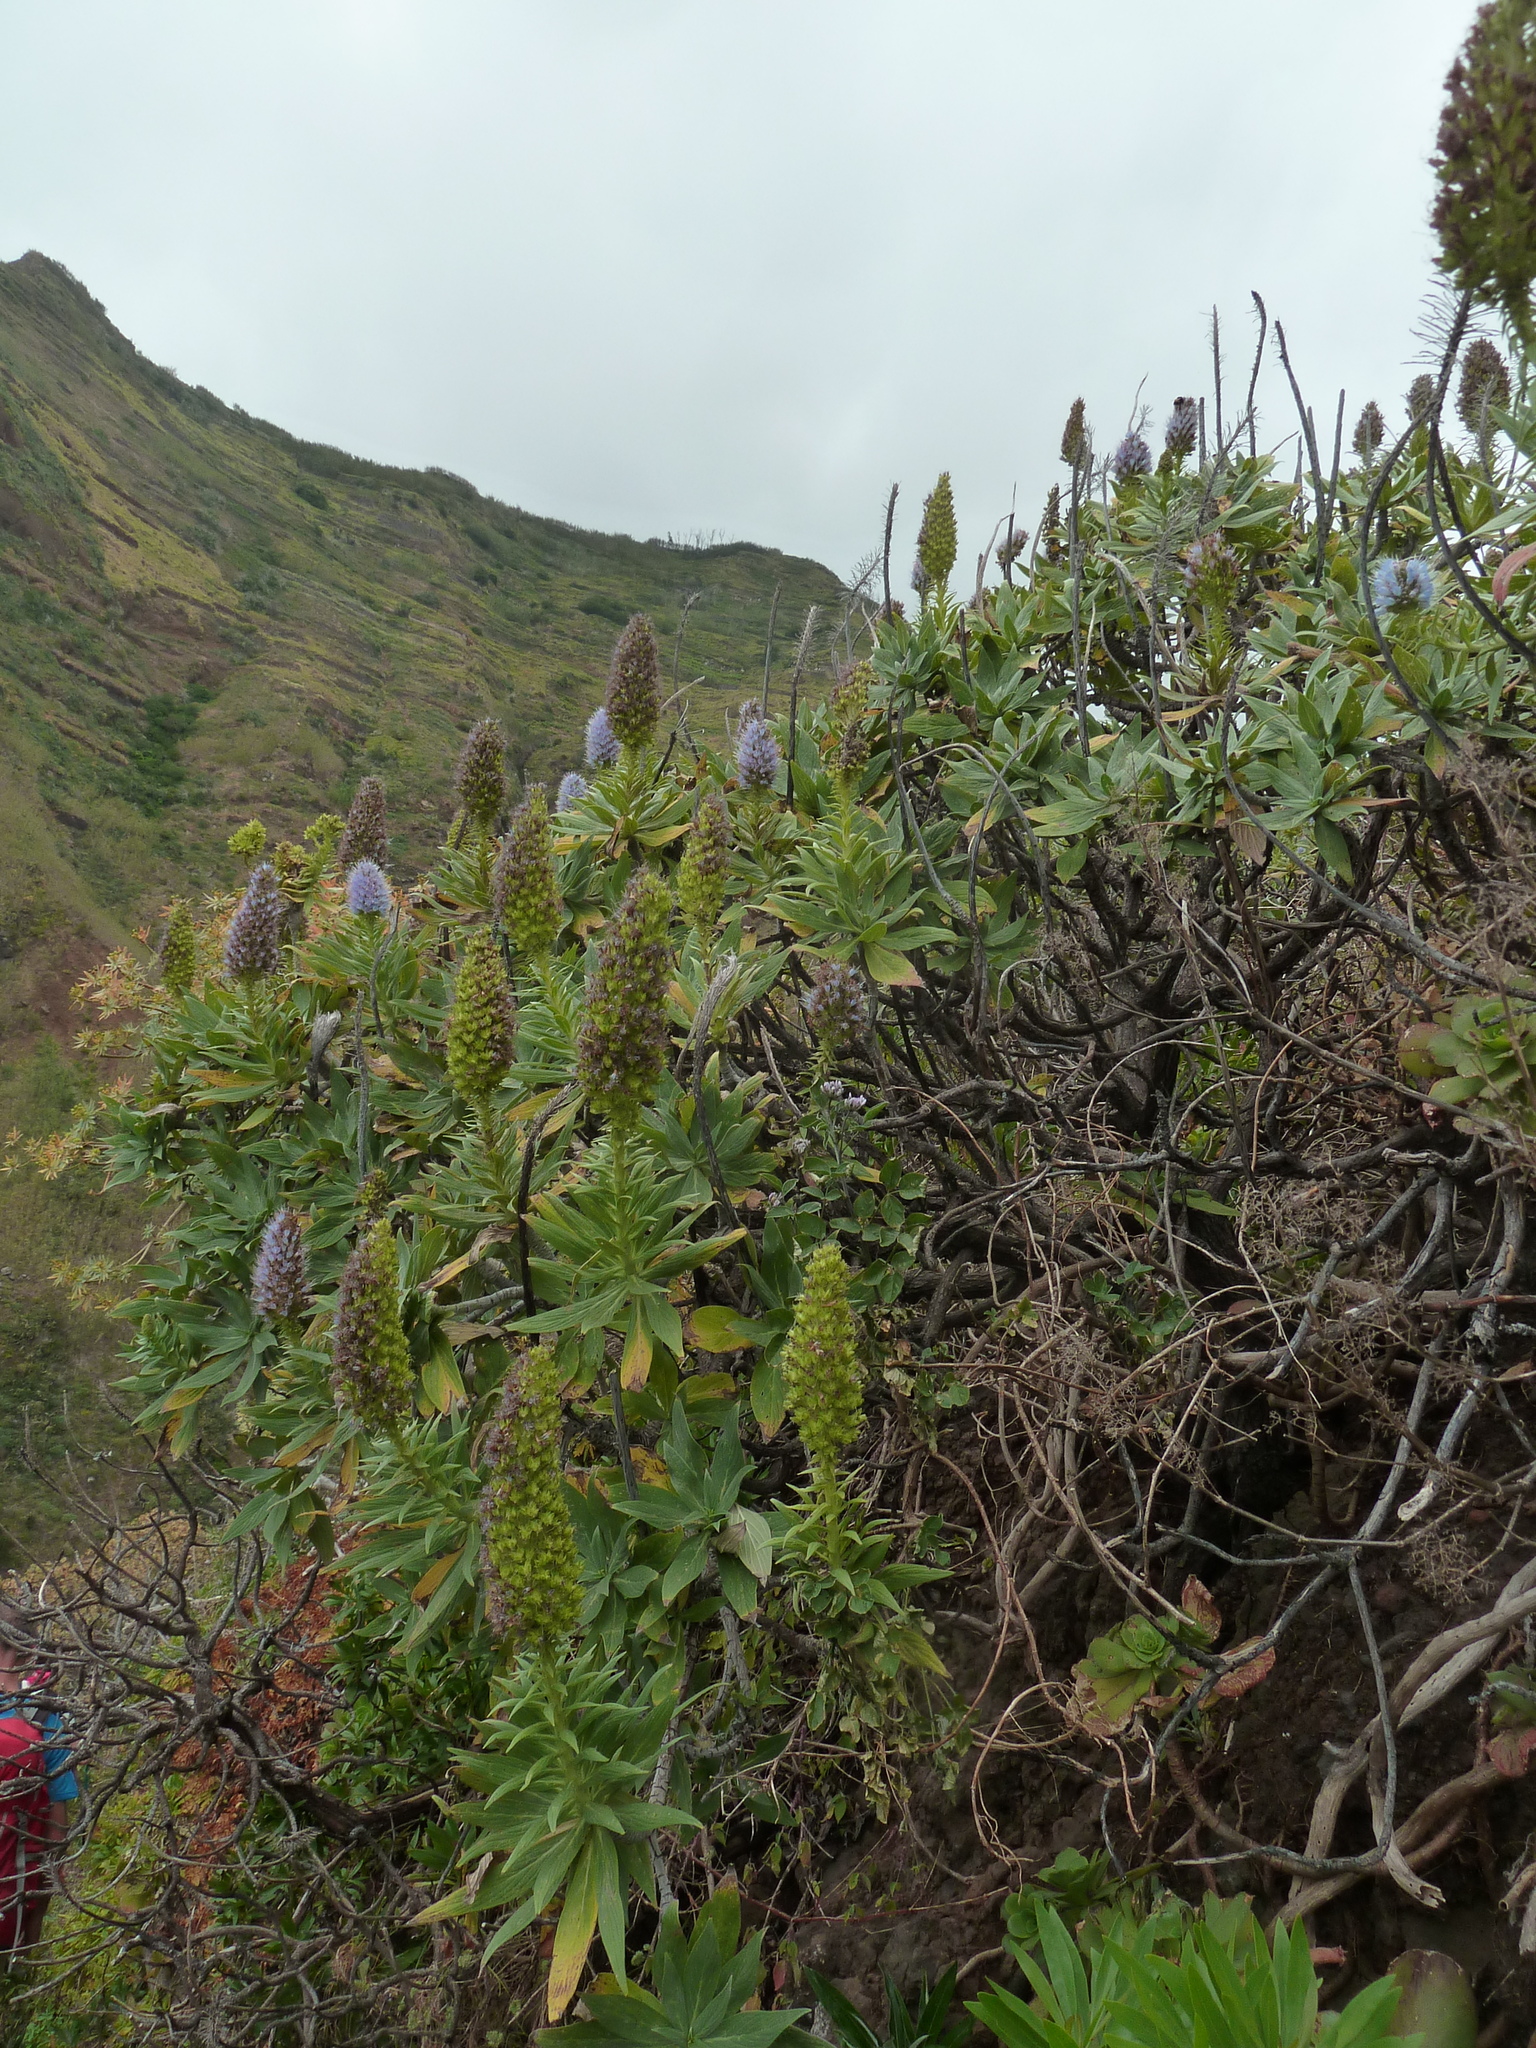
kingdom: Plantae
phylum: Tracheophyta
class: Magnoliopsida
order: Boraginales
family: Boraginaceae
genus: Echium
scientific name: Echium nervosum
